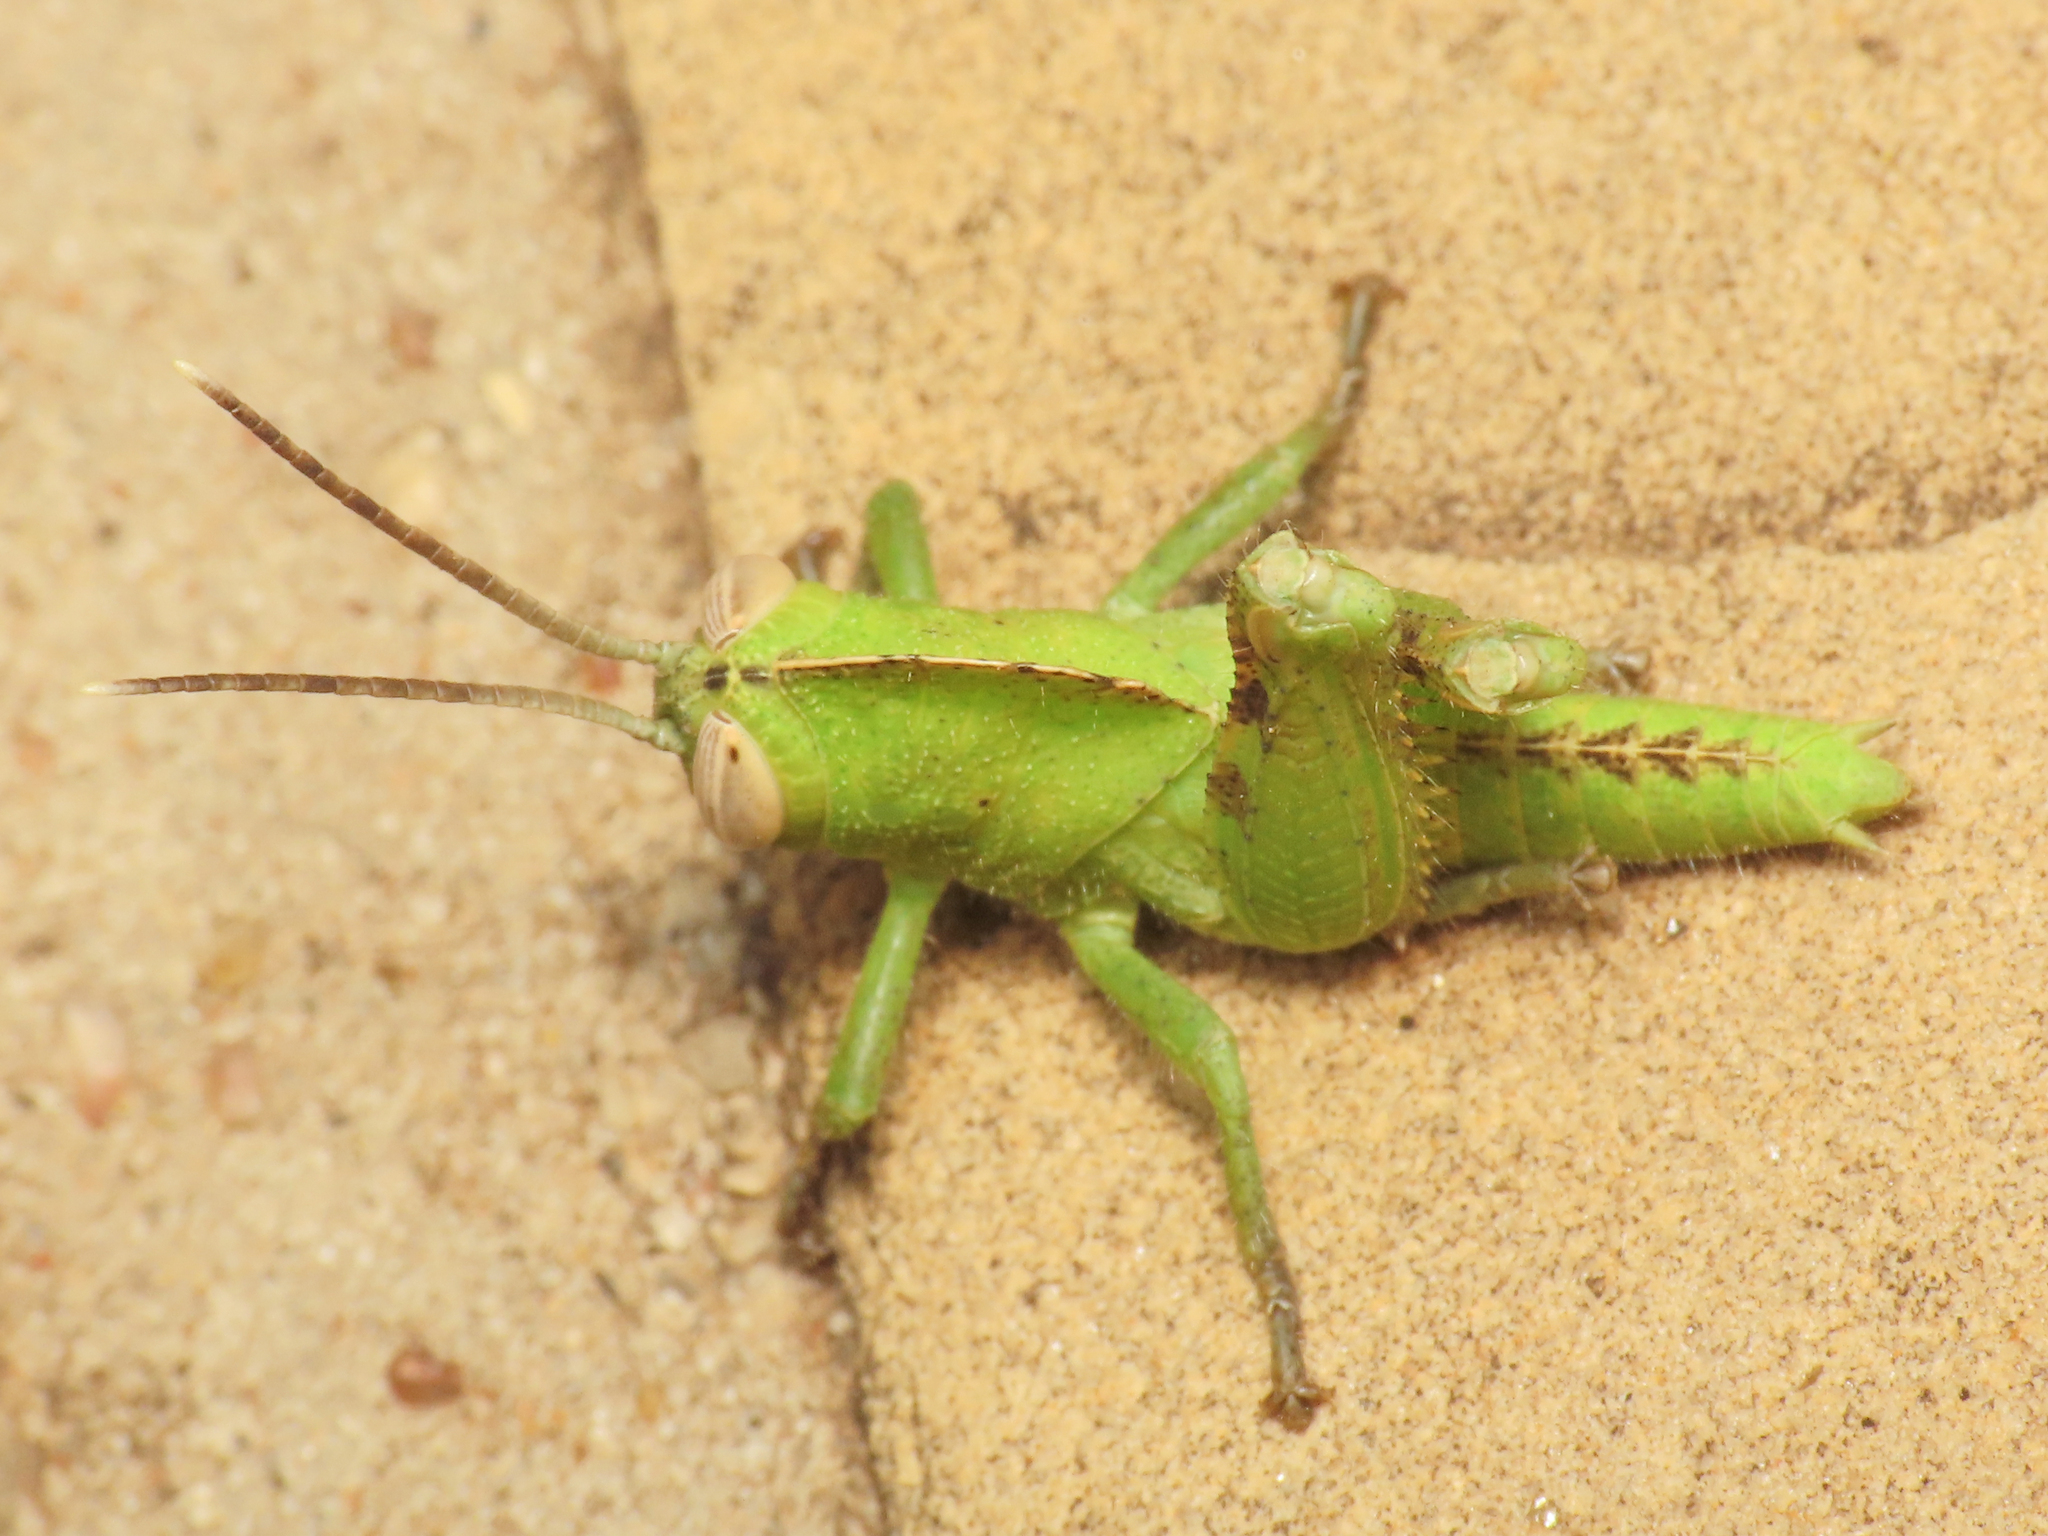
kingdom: Animalia
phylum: Arthropoda
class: Insecta
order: Orthoptera
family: Acrididae
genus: Abisares
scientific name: Abisares viridipenne
